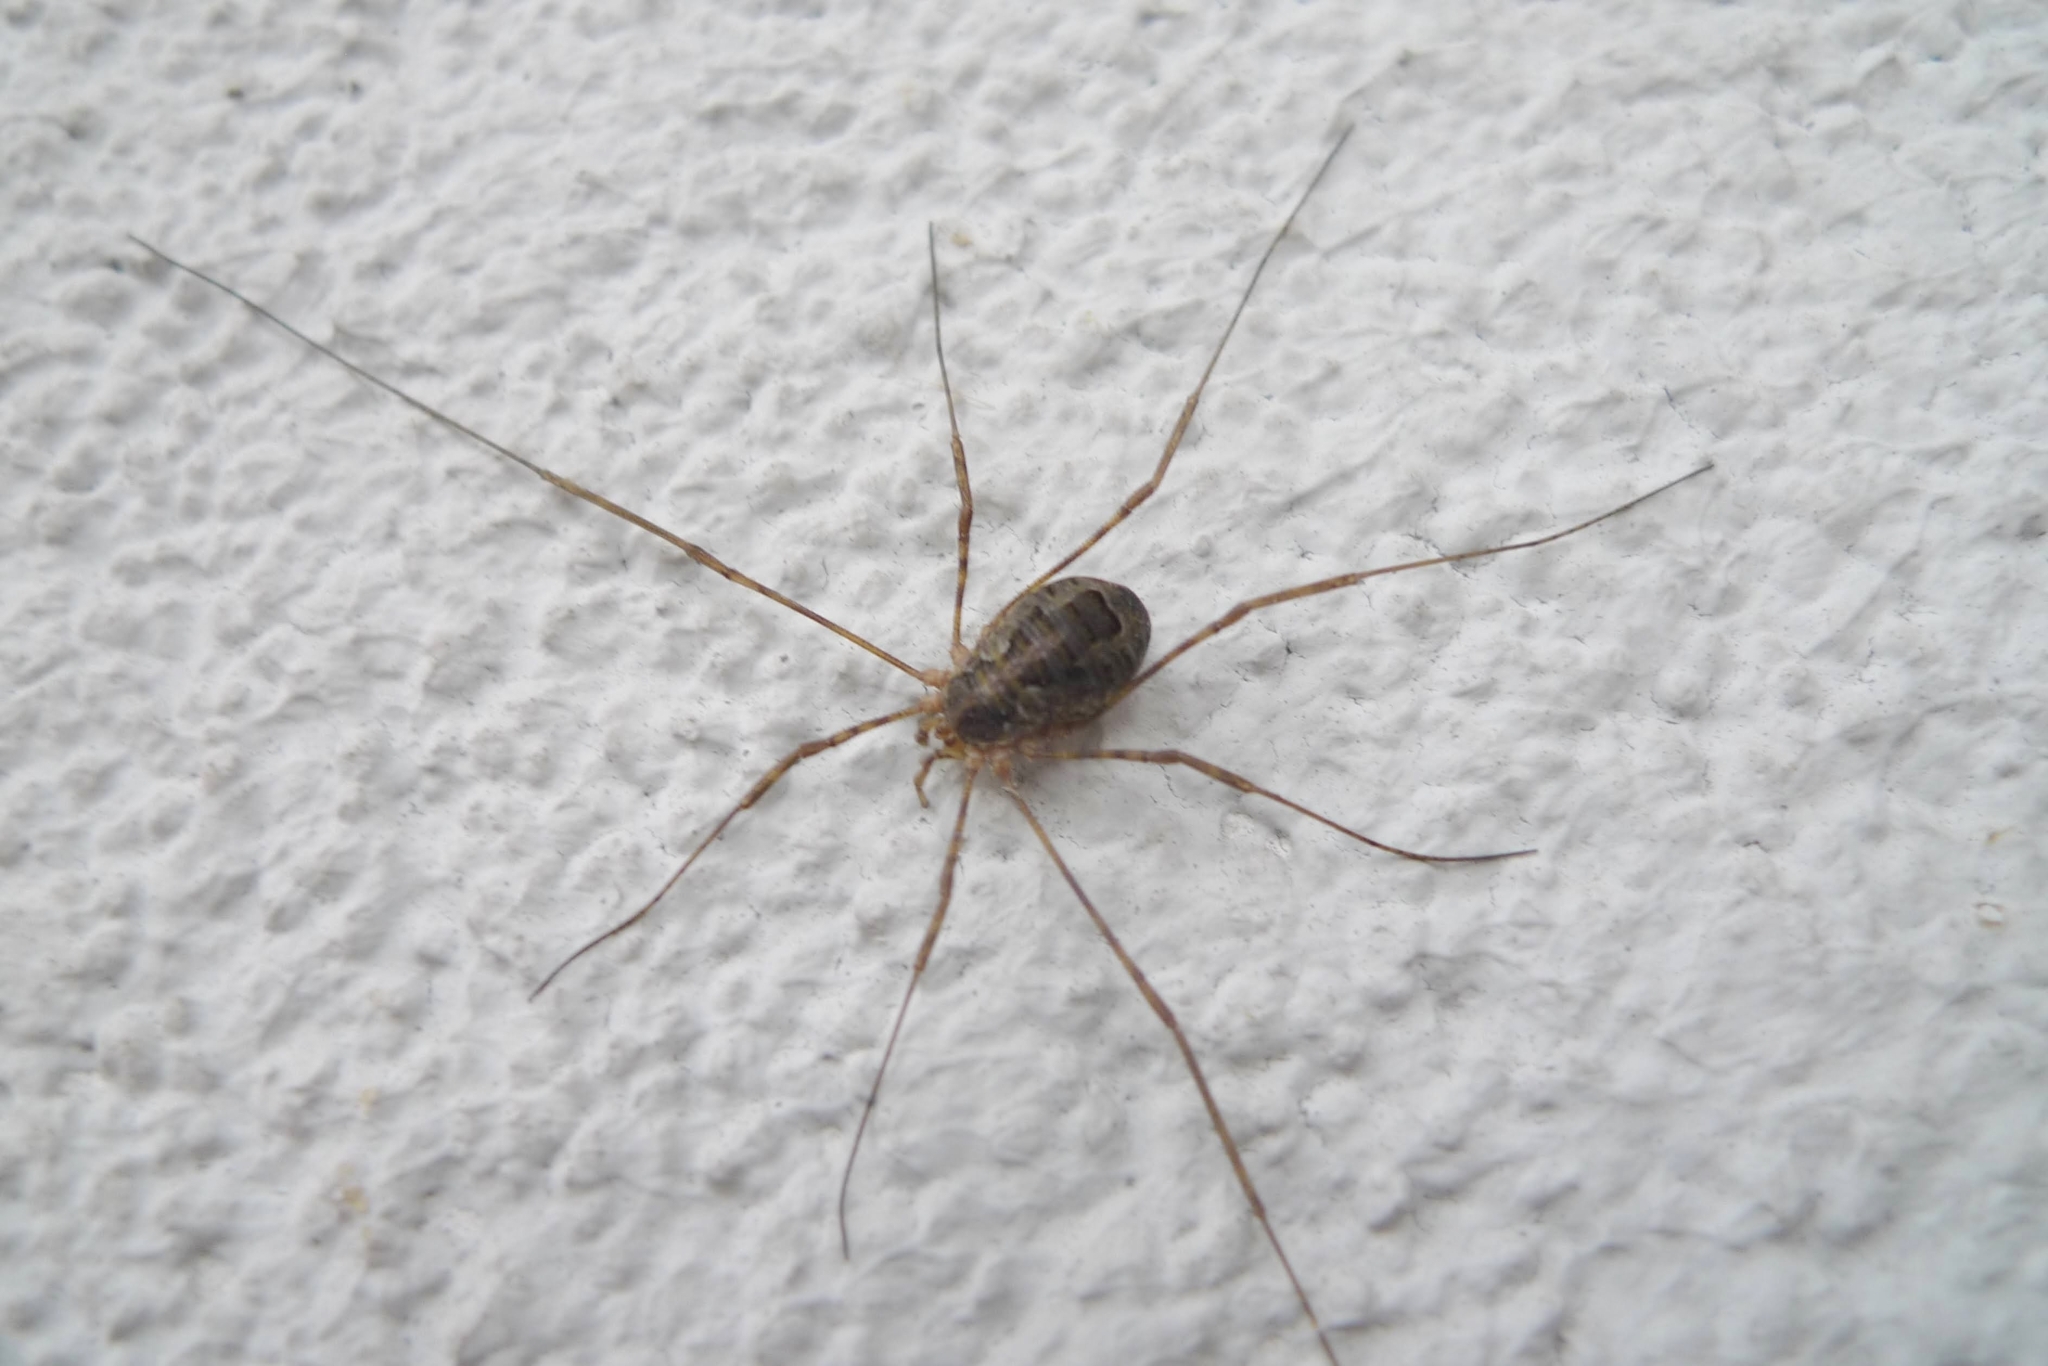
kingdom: Animalia
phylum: Arthropoda
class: Arachnida
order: Opiliones
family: Phalangiidae
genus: Lacinius
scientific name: Lacinius dentiger
